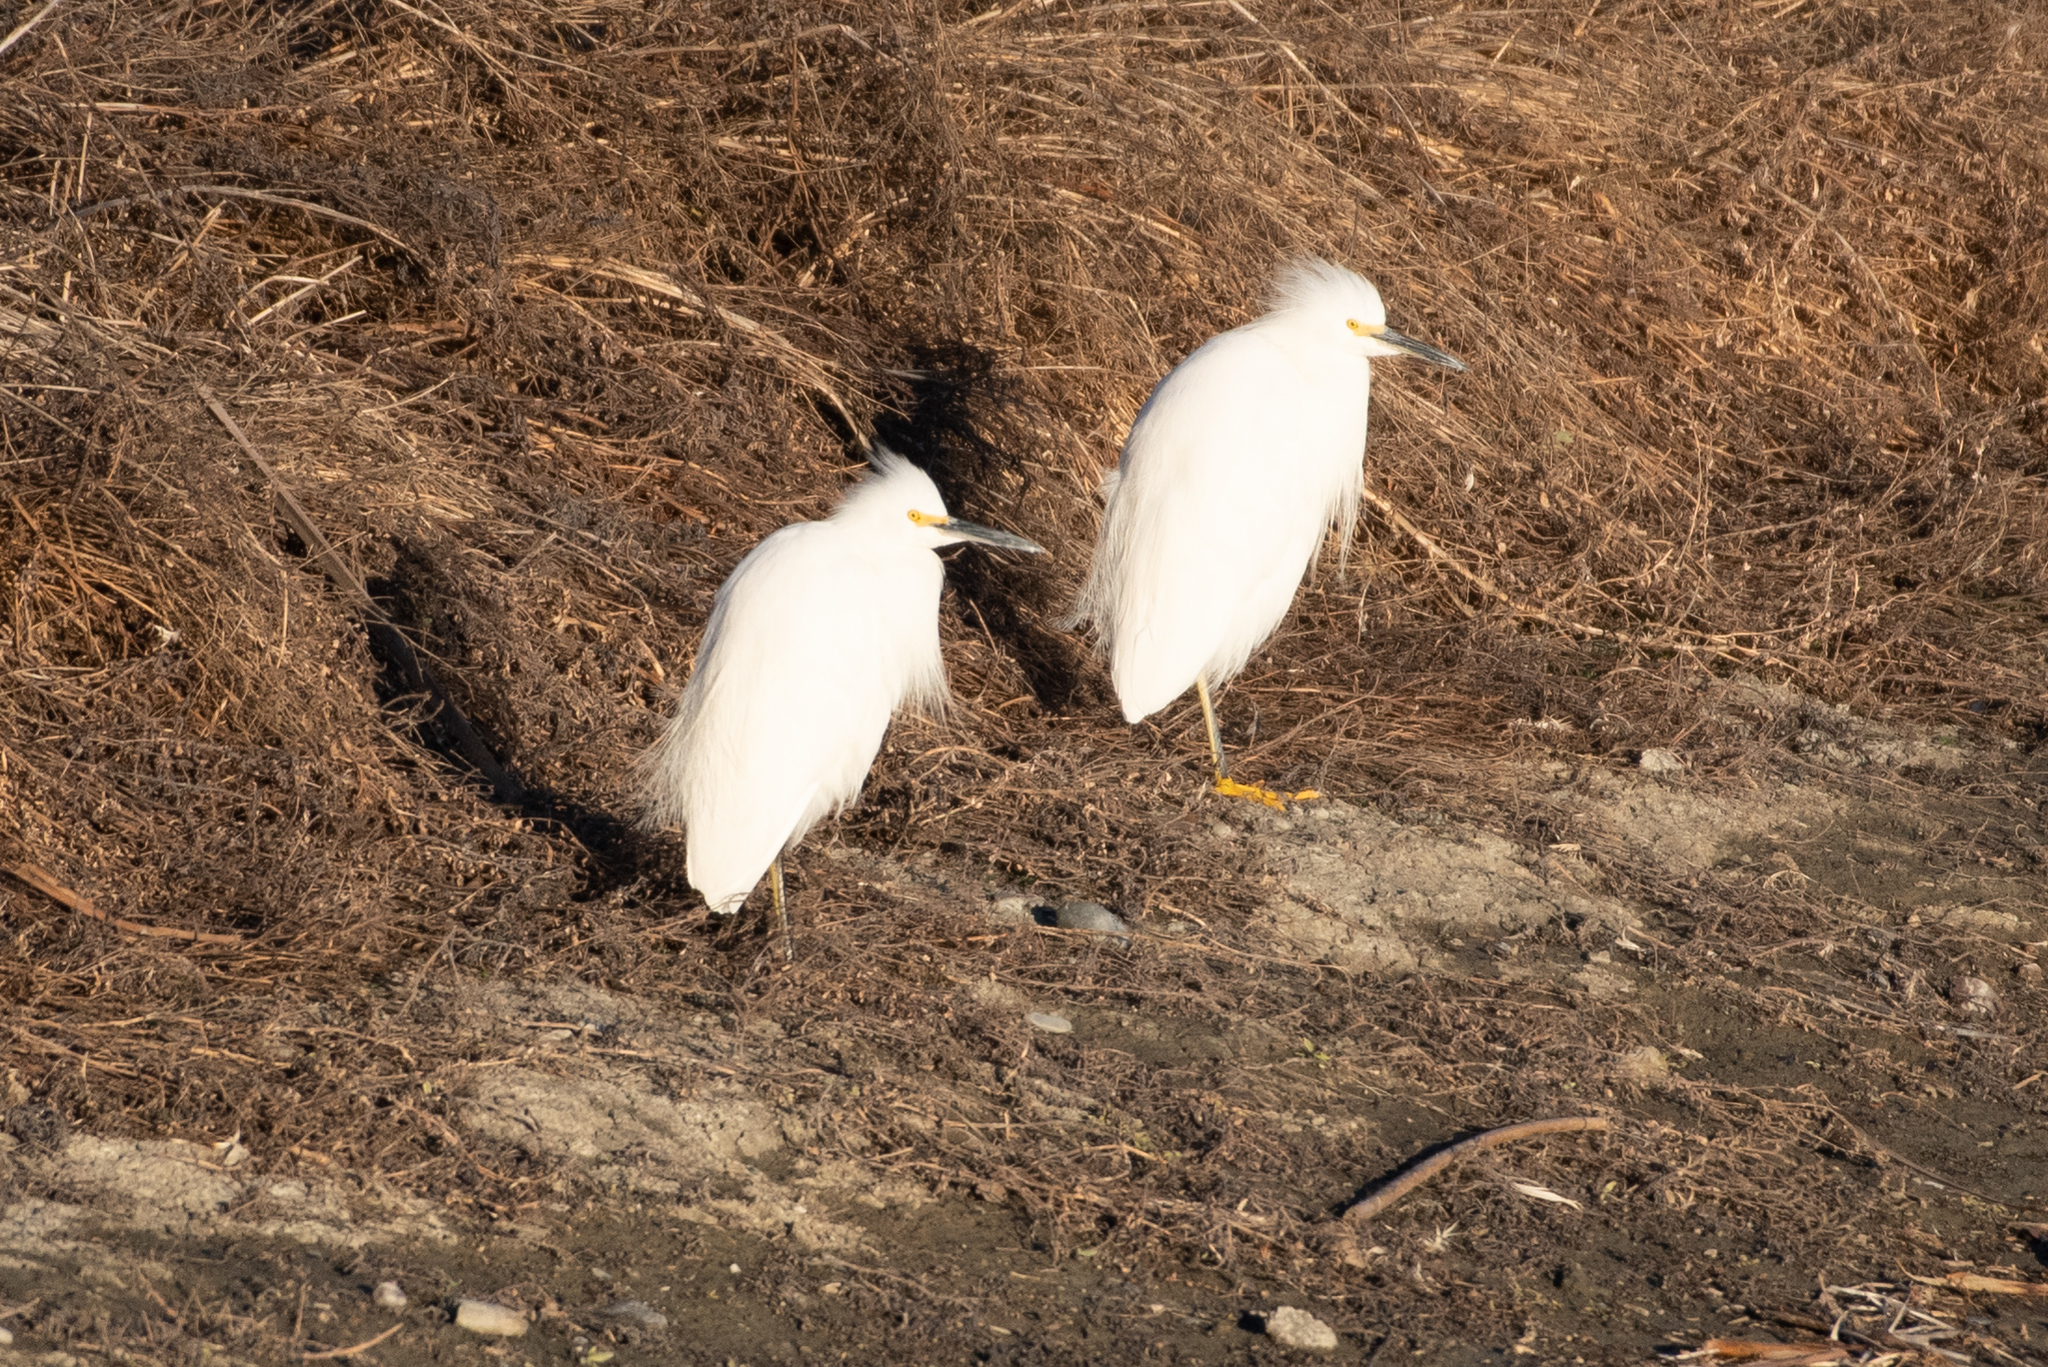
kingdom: Animalia
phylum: Chordata
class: Aves
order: Pelecaniformes
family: Ardeidae
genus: Egretta
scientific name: Egretta thula
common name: Snowy egret
